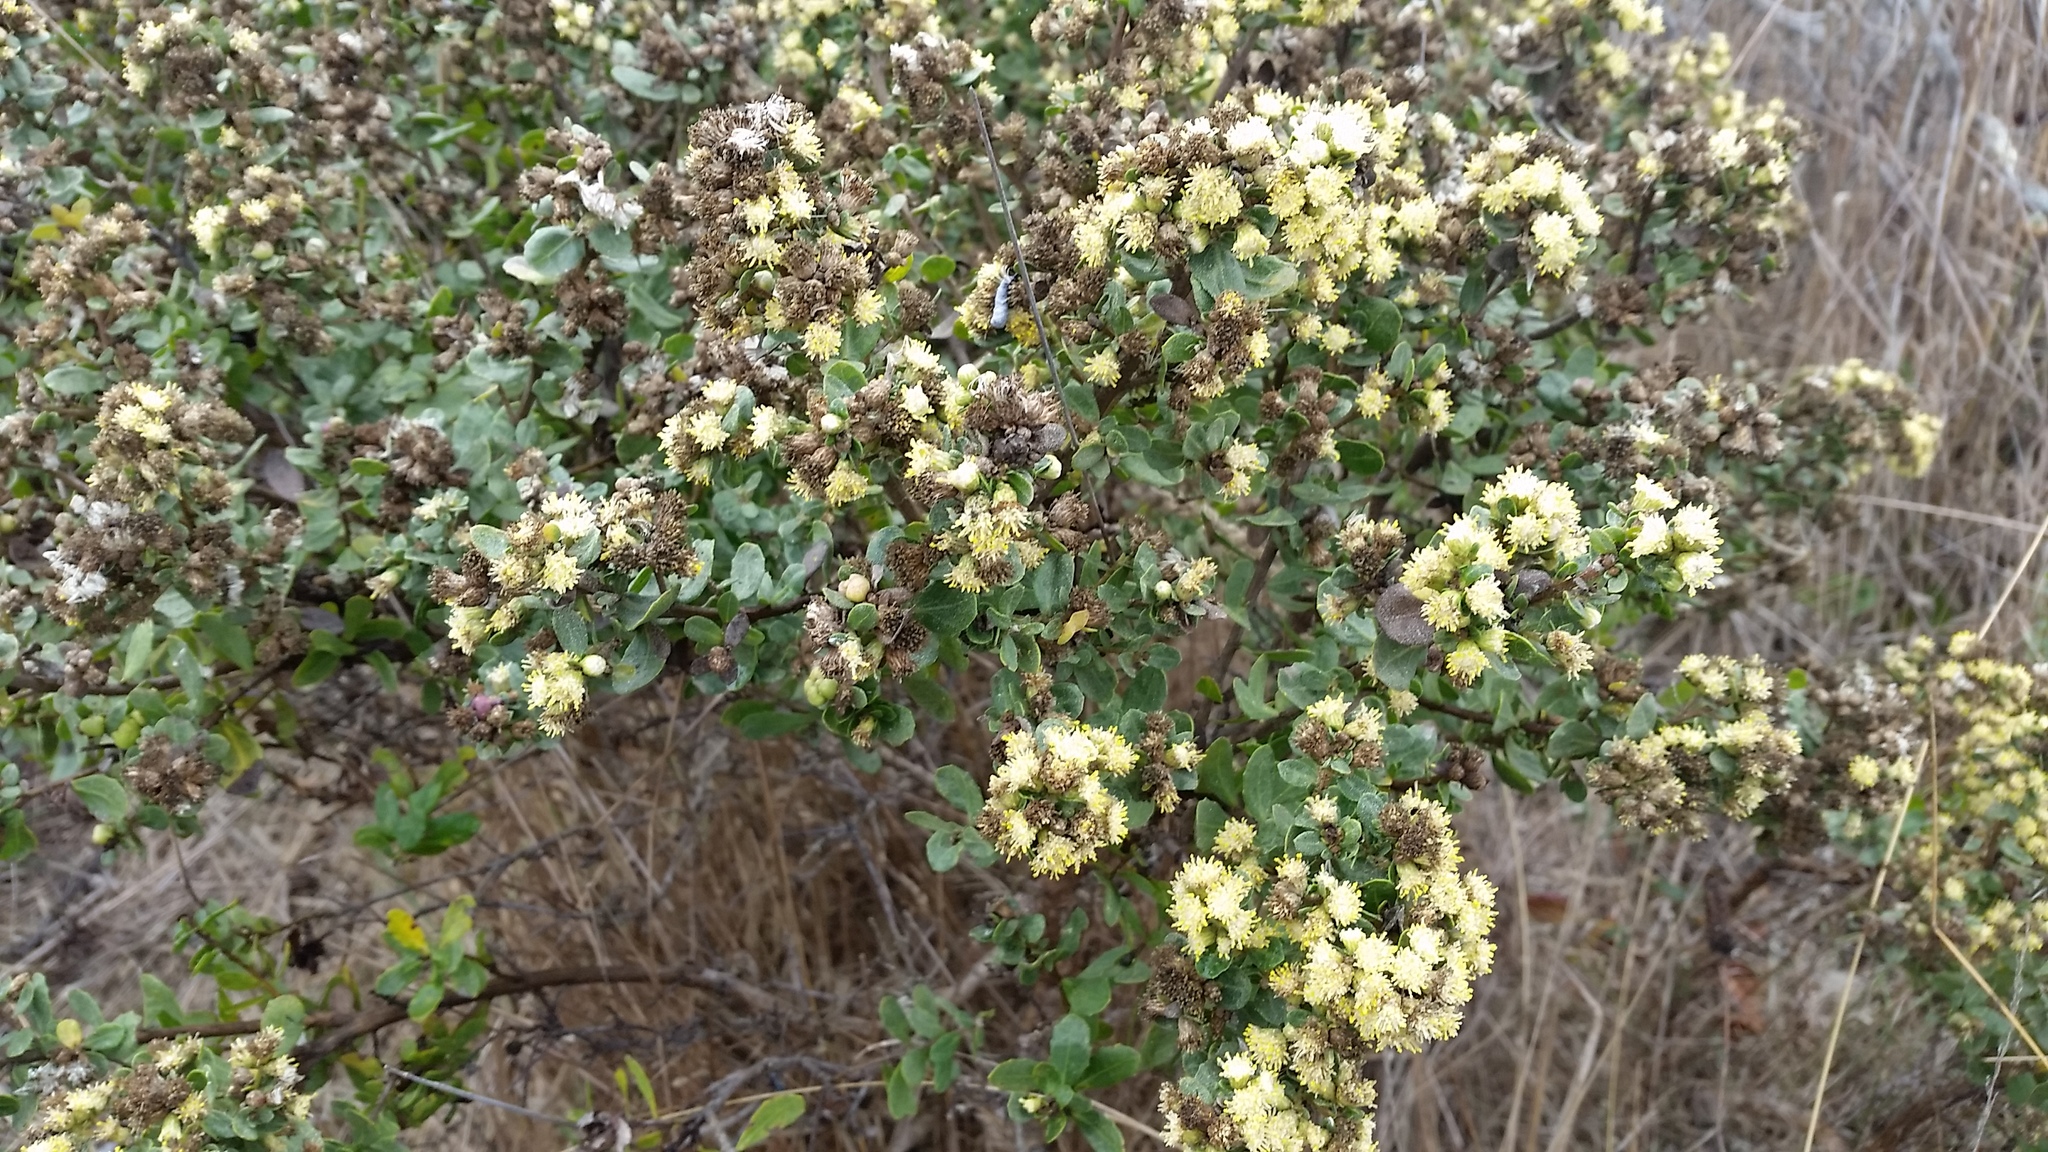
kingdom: Plantae
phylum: Tracheophyta
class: Magnoliopsida
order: Asterales
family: Asteraceae
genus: Baccharis
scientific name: Baccharis pilularis
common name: Coyotebrush
